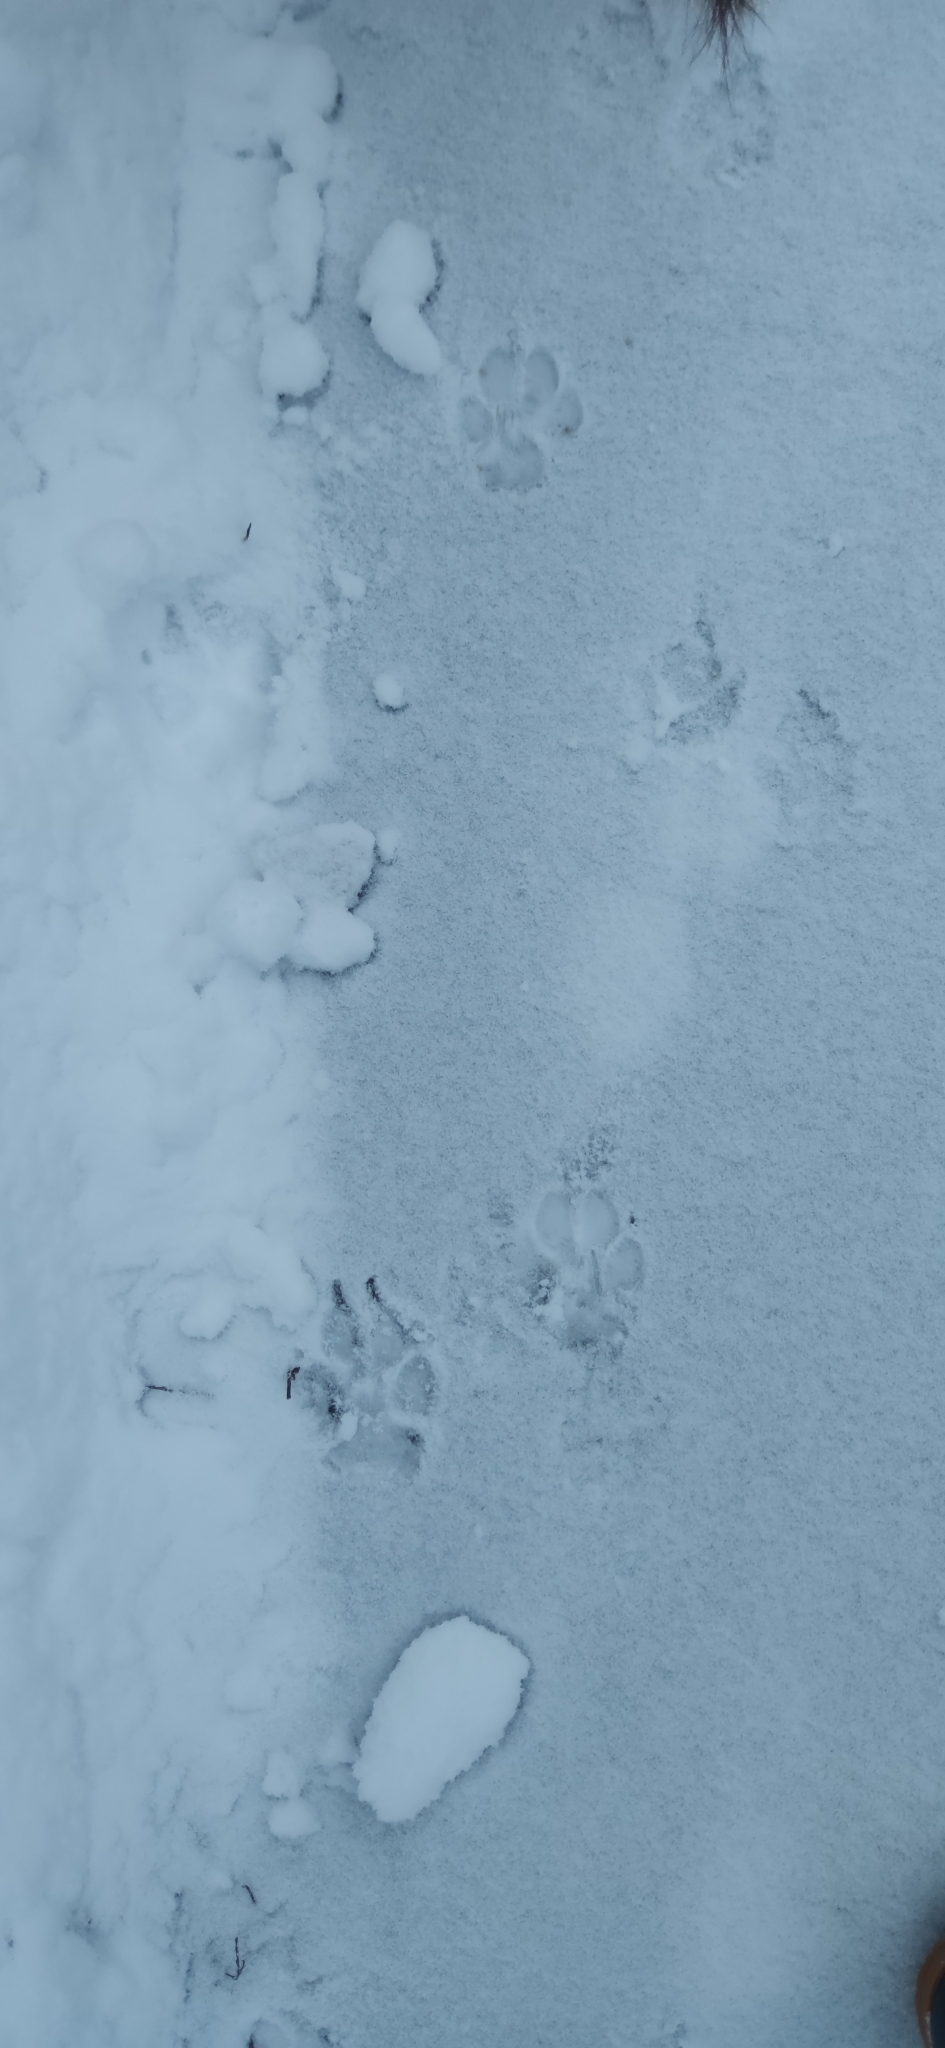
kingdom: Animalia
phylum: Chordata
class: Mammalia
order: Carnivora
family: Canidae
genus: Canis
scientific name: Canis lupus
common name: Gray wolf
